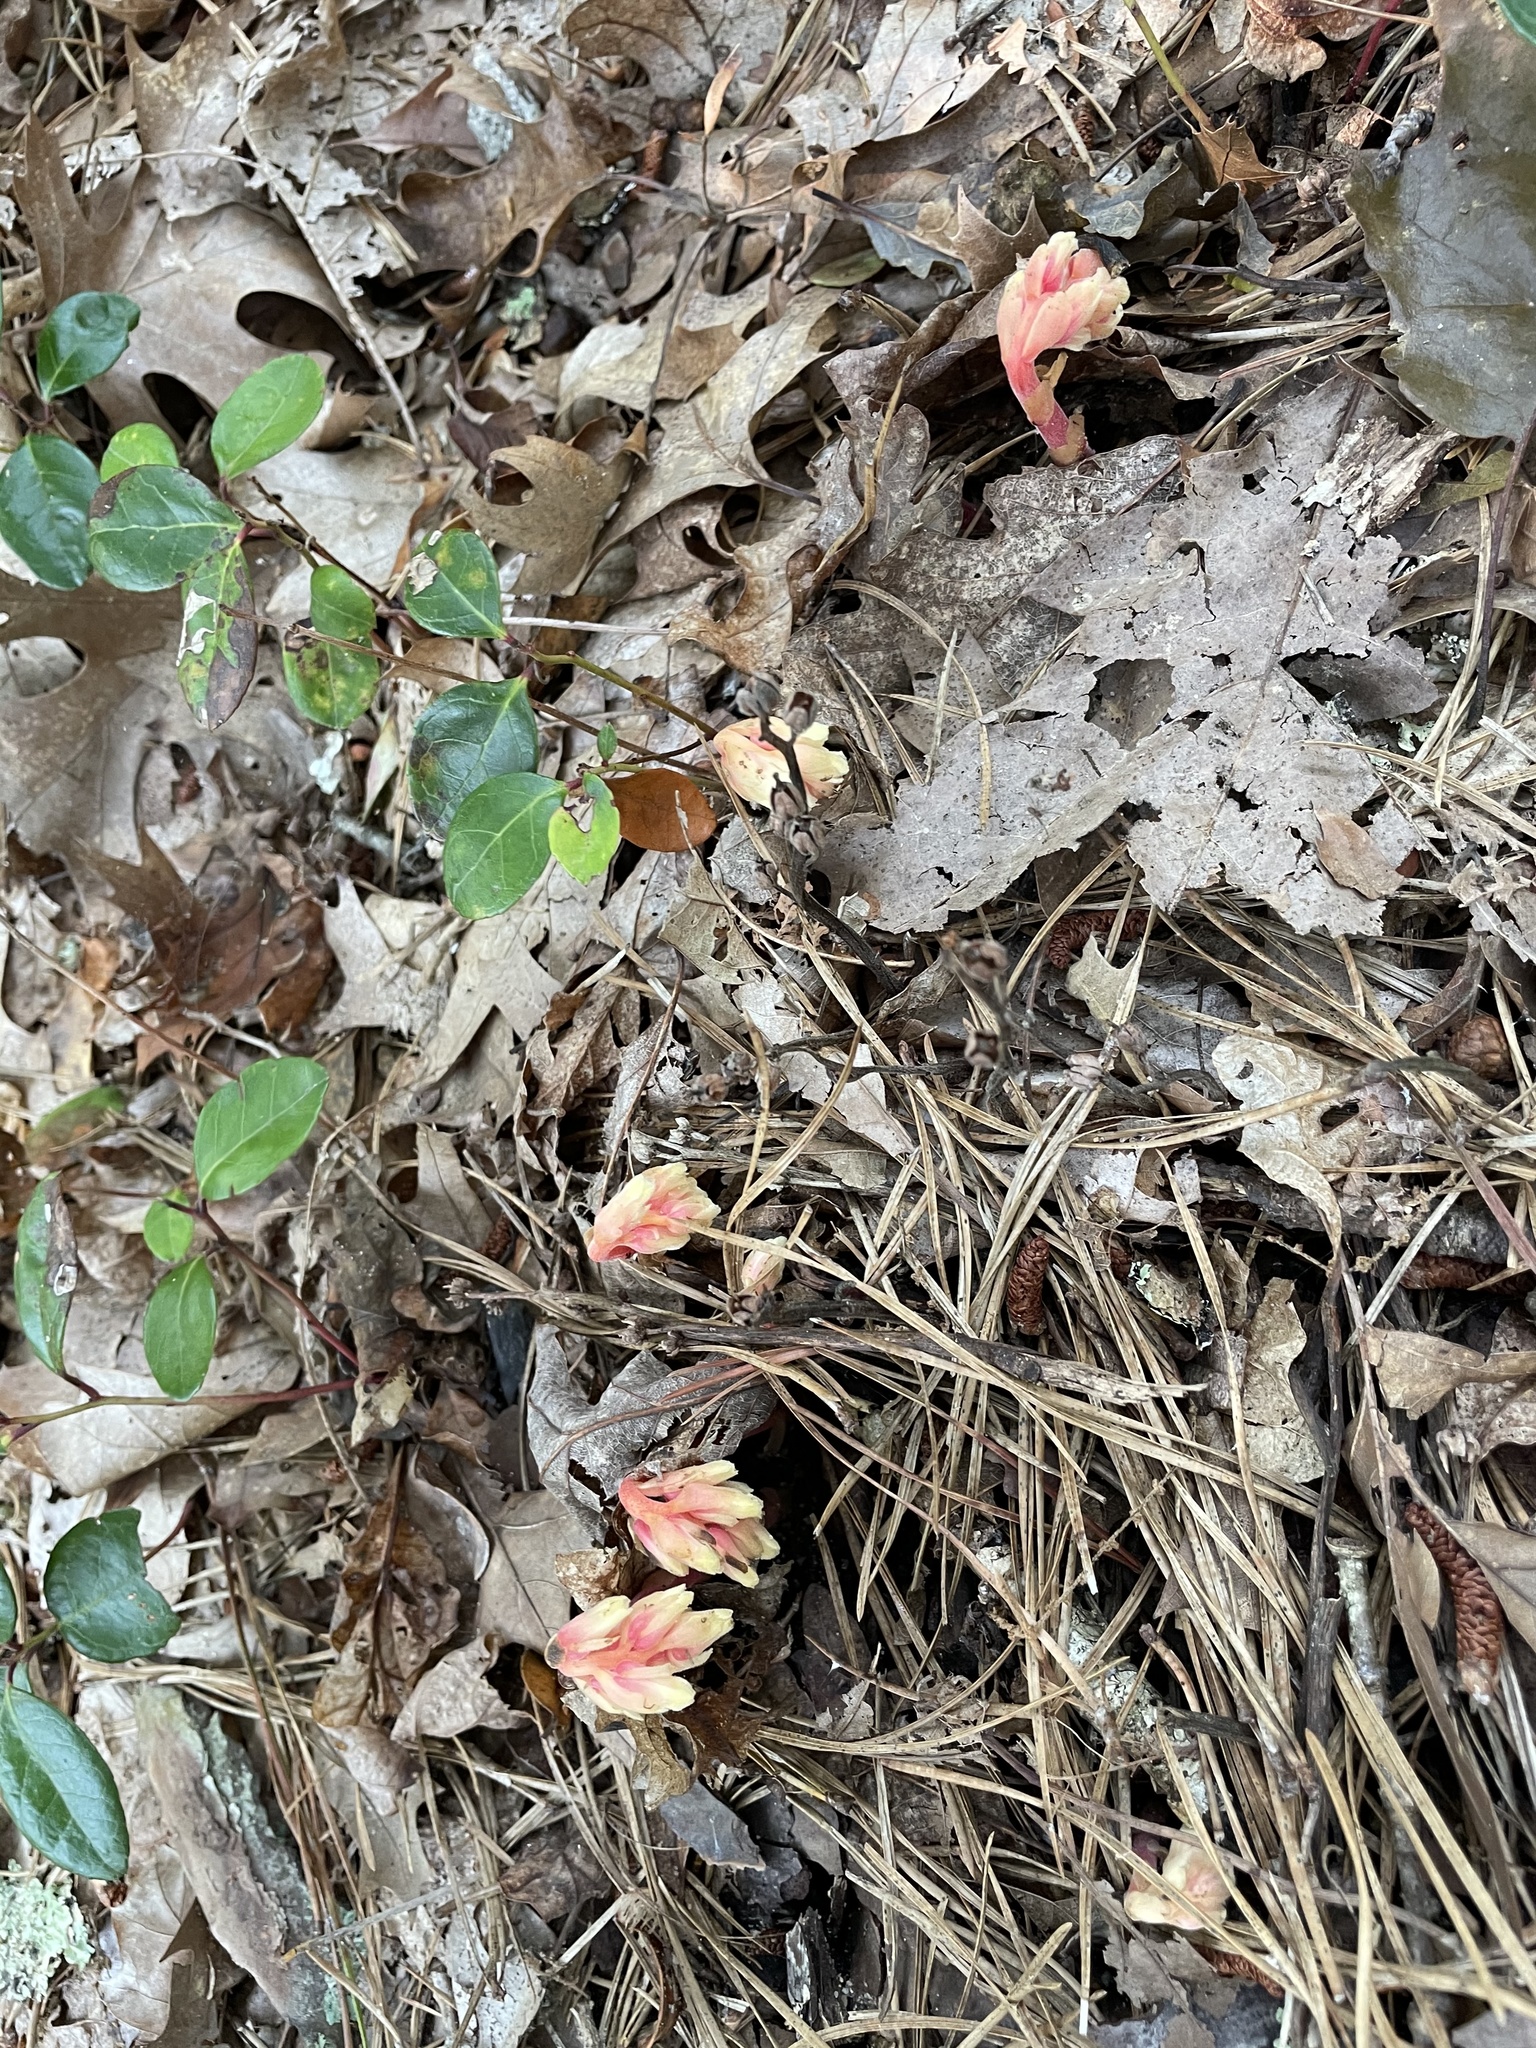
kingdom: Plantae
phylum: Tracheophyta
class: Magnoliopsida
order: Ericales
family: Ericaceae
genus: Hypopitys
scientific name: Hypopitys monotropa
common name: Yellow bird's-nest
